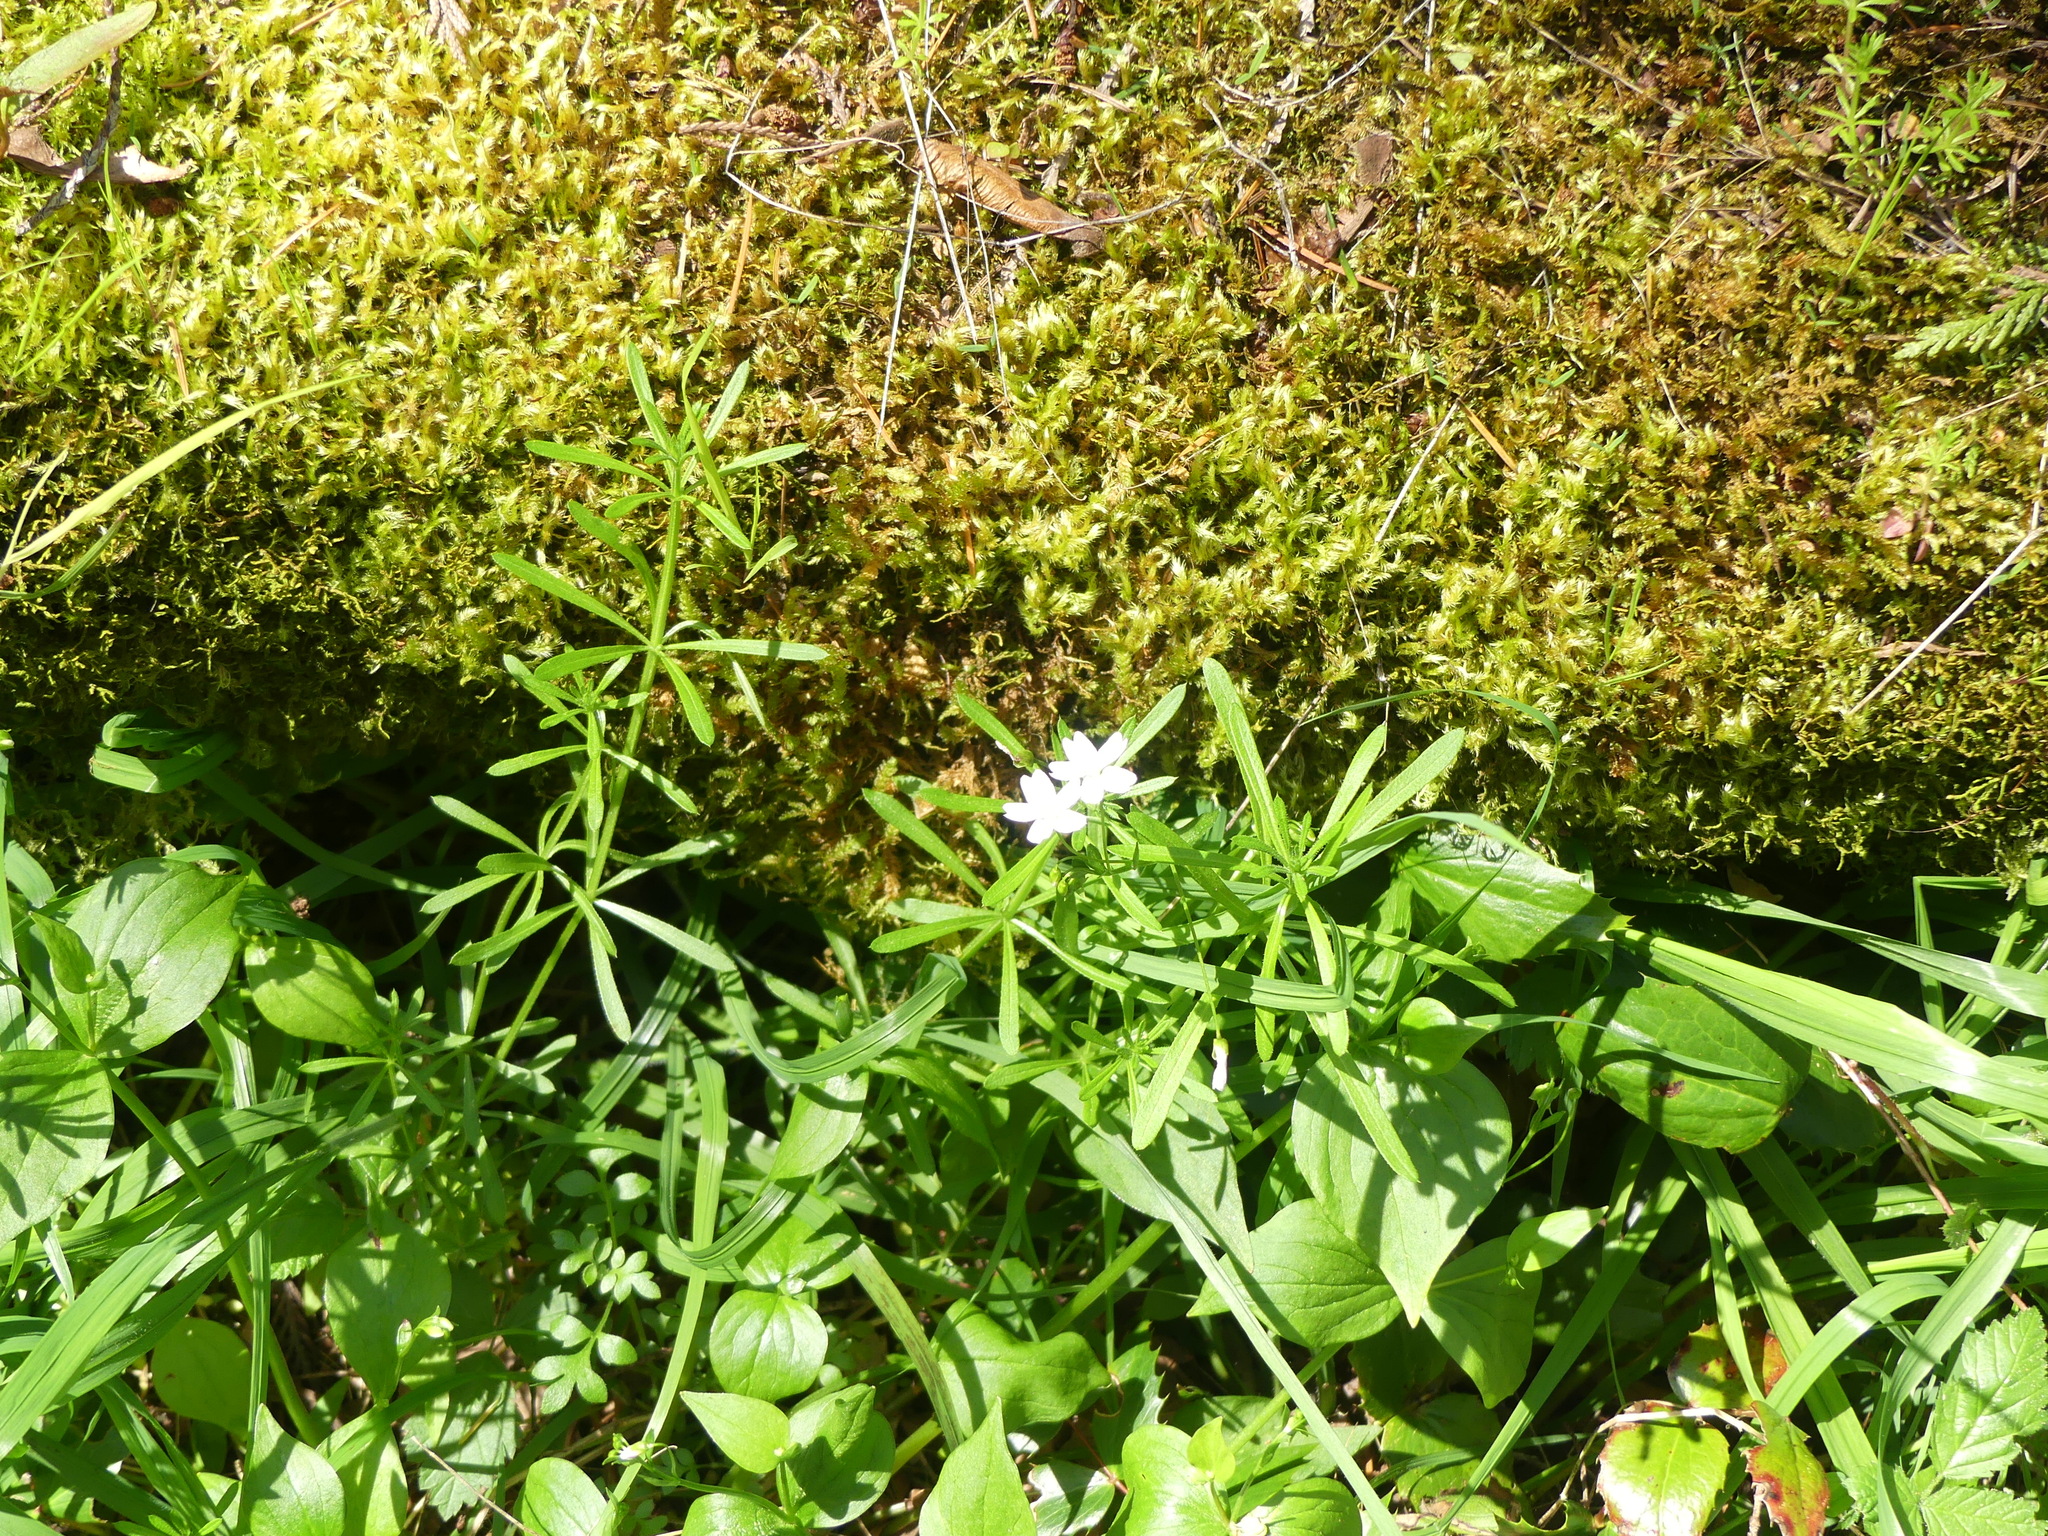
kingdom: Plantae
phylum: Tracheophyta
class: Magnoliopsida
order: Gentianales
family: Rubiaceae
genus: Galium
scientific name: Galium aparine
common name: Cleavers
